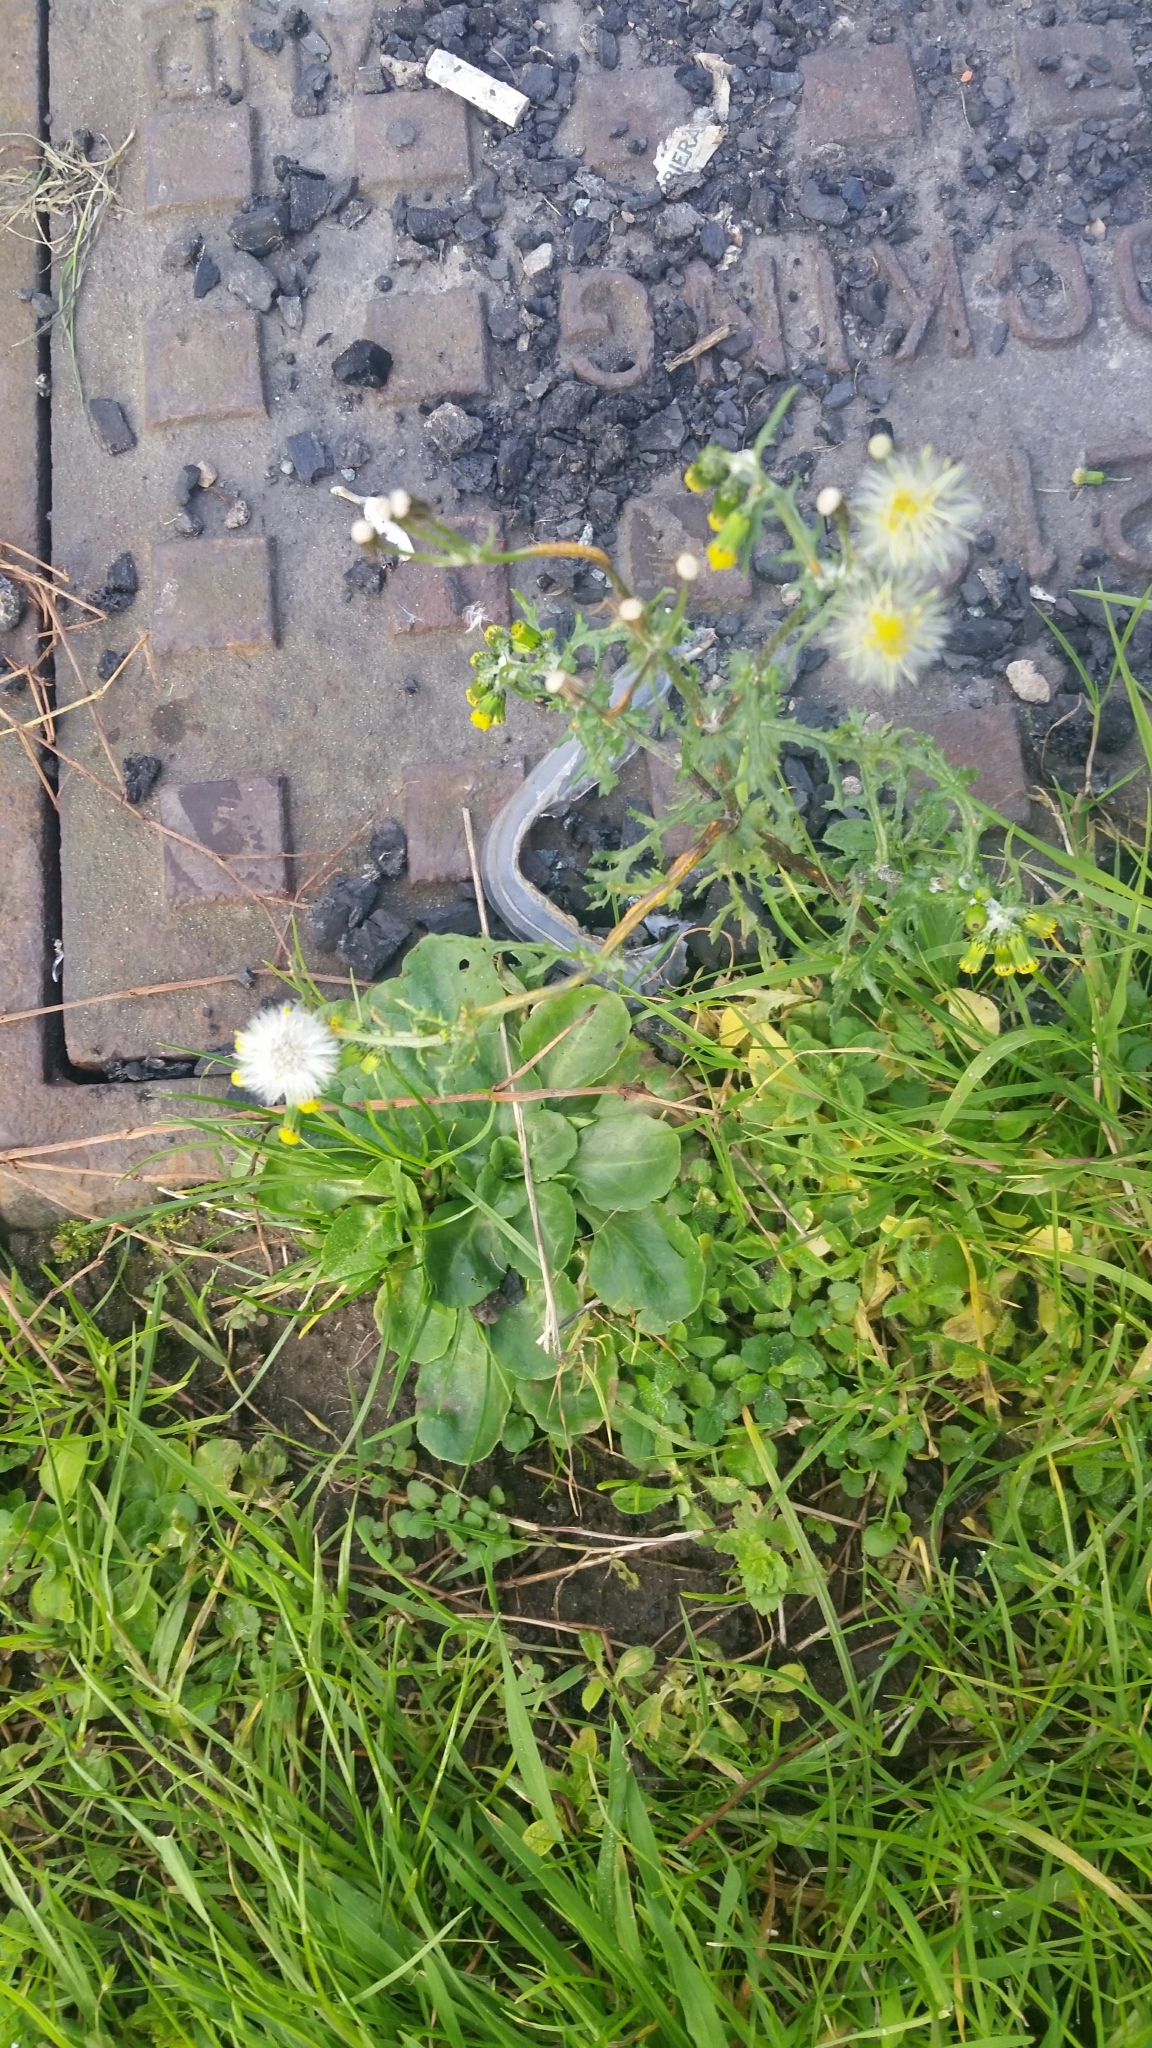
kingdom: Plantae
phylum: Tracheophyta
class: Magnoliopsida
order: Asterales
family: Asteraceae
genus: Senecio
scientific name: Senecio vulgaris
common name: Old-man-in-the-spring
